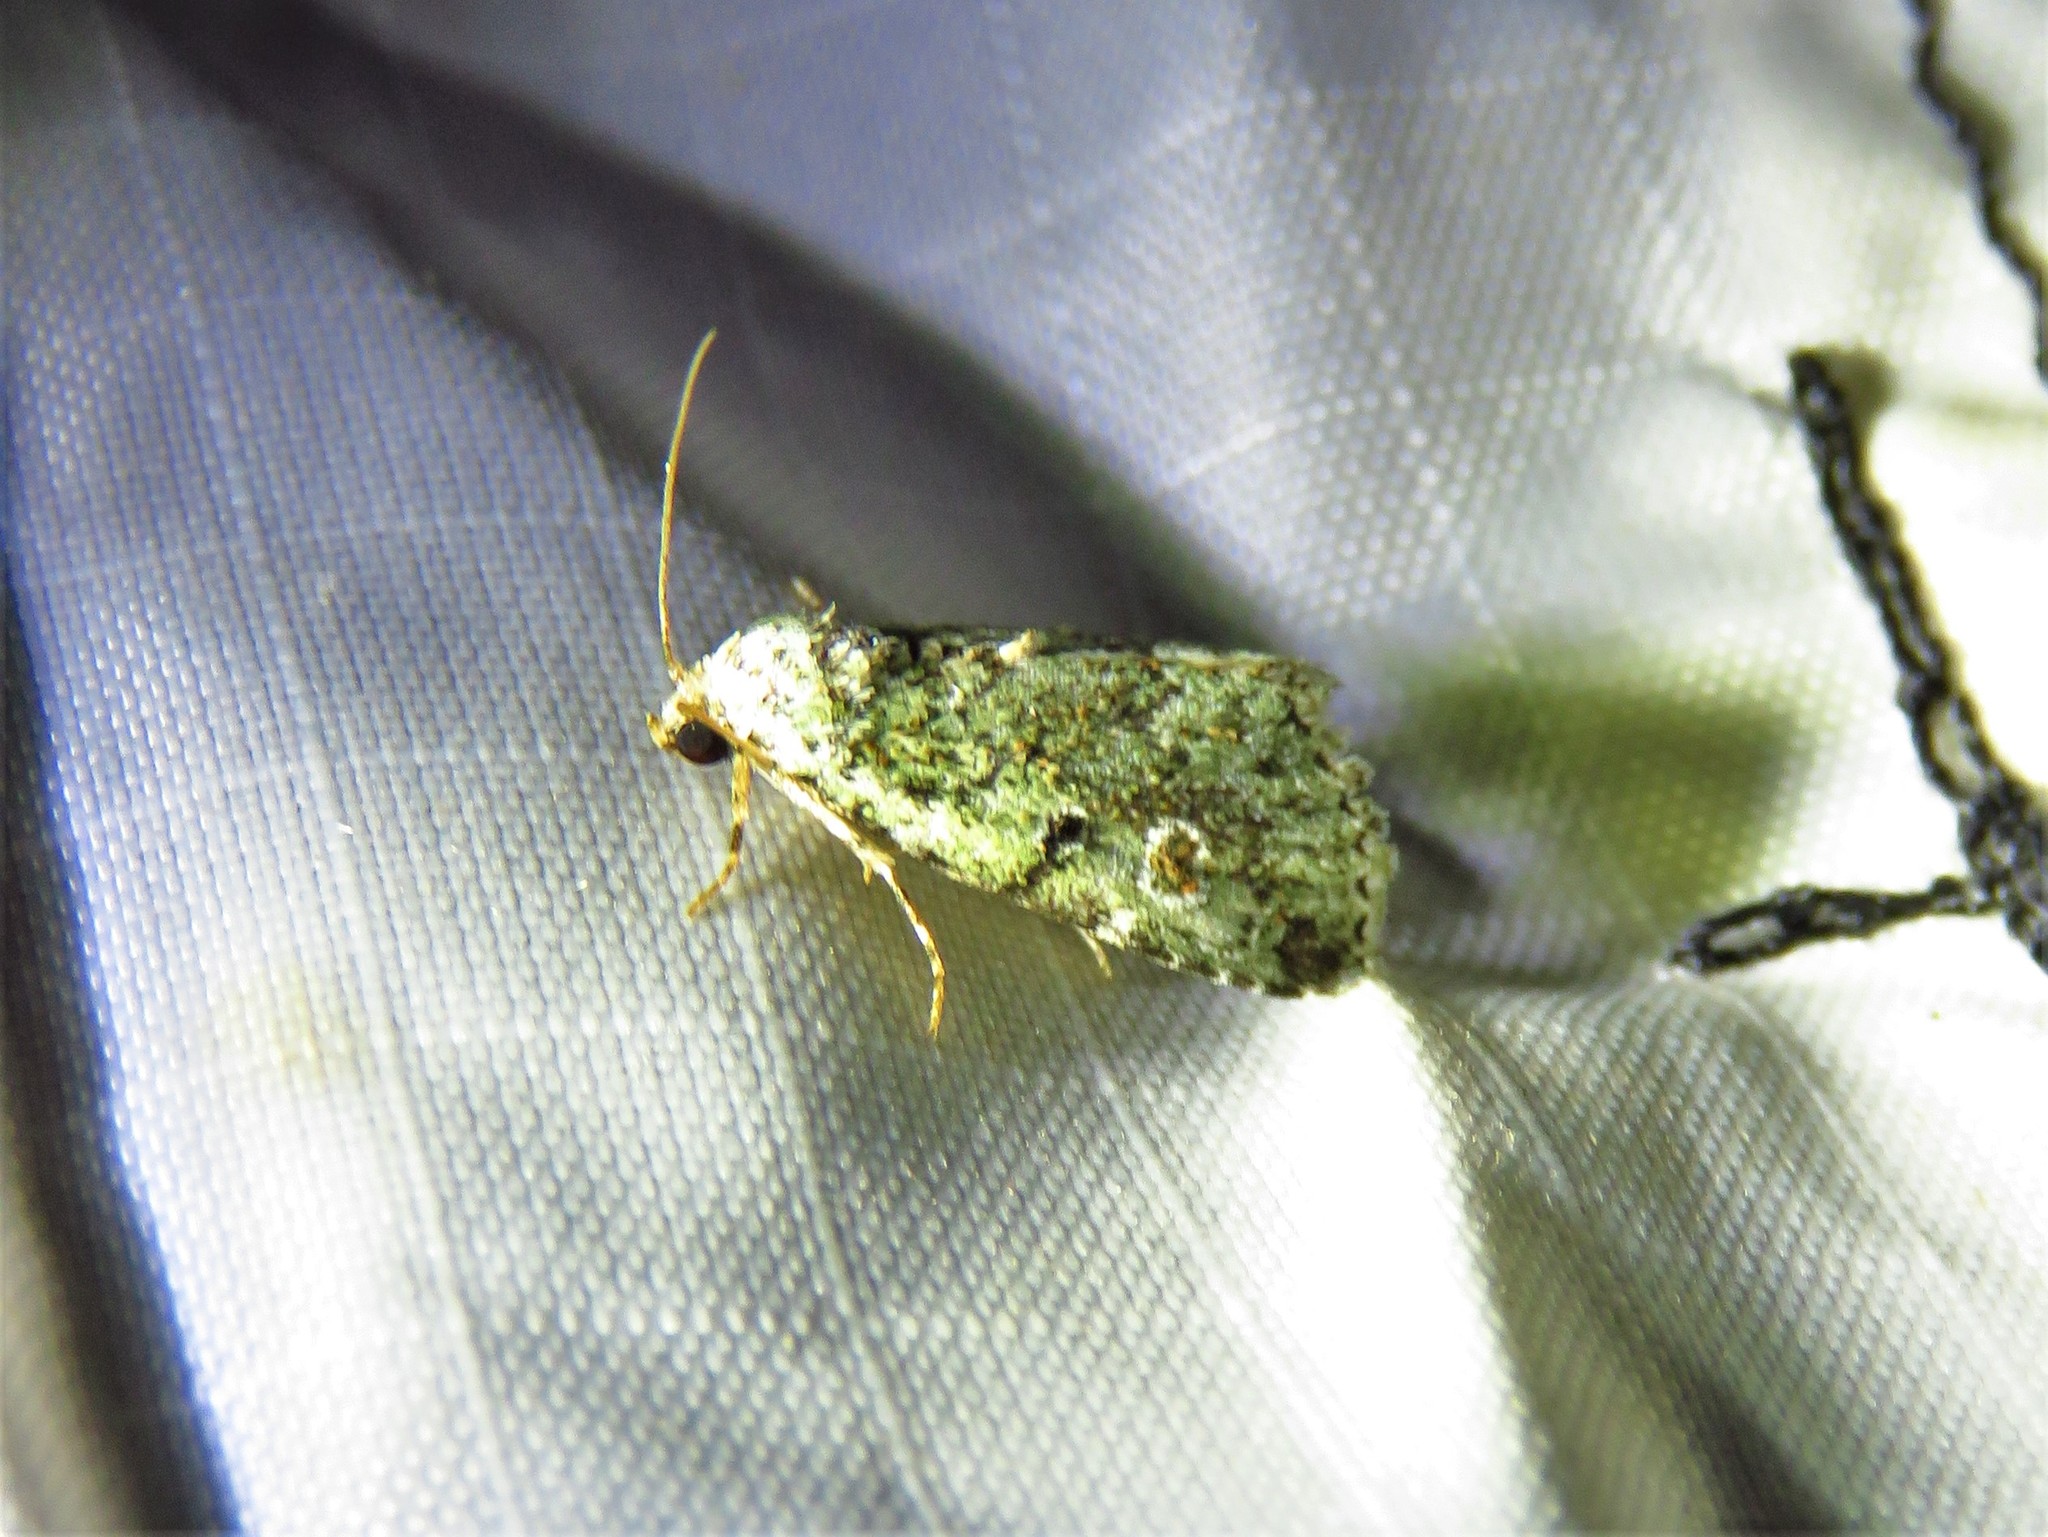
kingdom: Animalia
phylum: Arthropoda
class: Insecta
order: Lepidoptera
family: Noctuidae
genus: Maliattha
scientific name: Maliattha concinnimacula
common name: Red-spotted glyph
